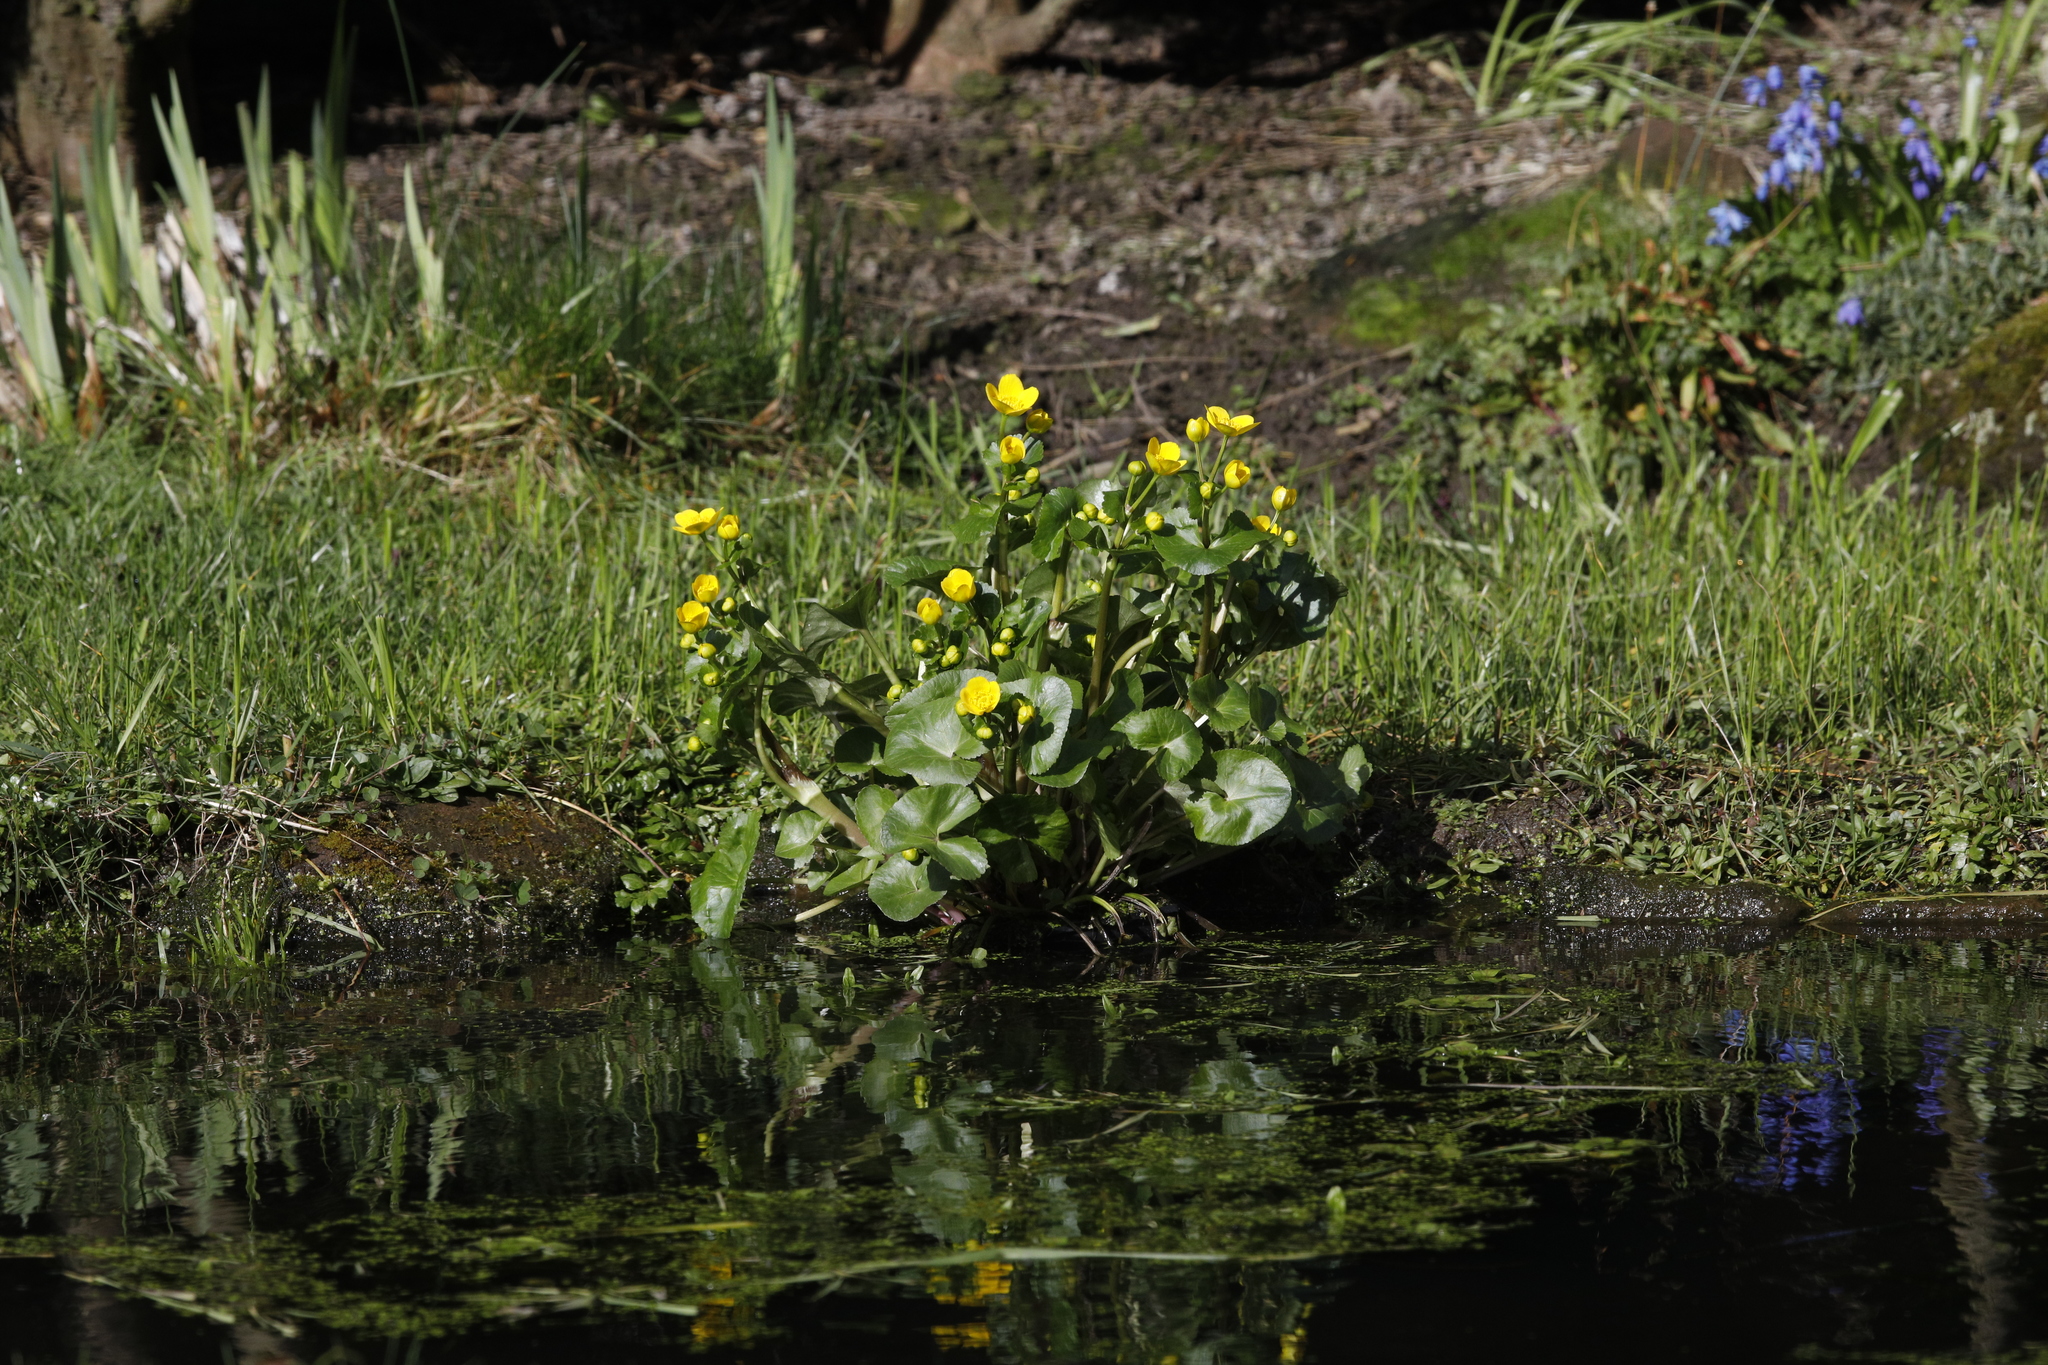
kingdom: Plantae
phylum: Tracheophyta
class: Magnoliopsida
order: Ranunculales
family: Ranunculaceae
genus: Caltha
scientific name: Caltha palustris
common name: Marsh marigold
